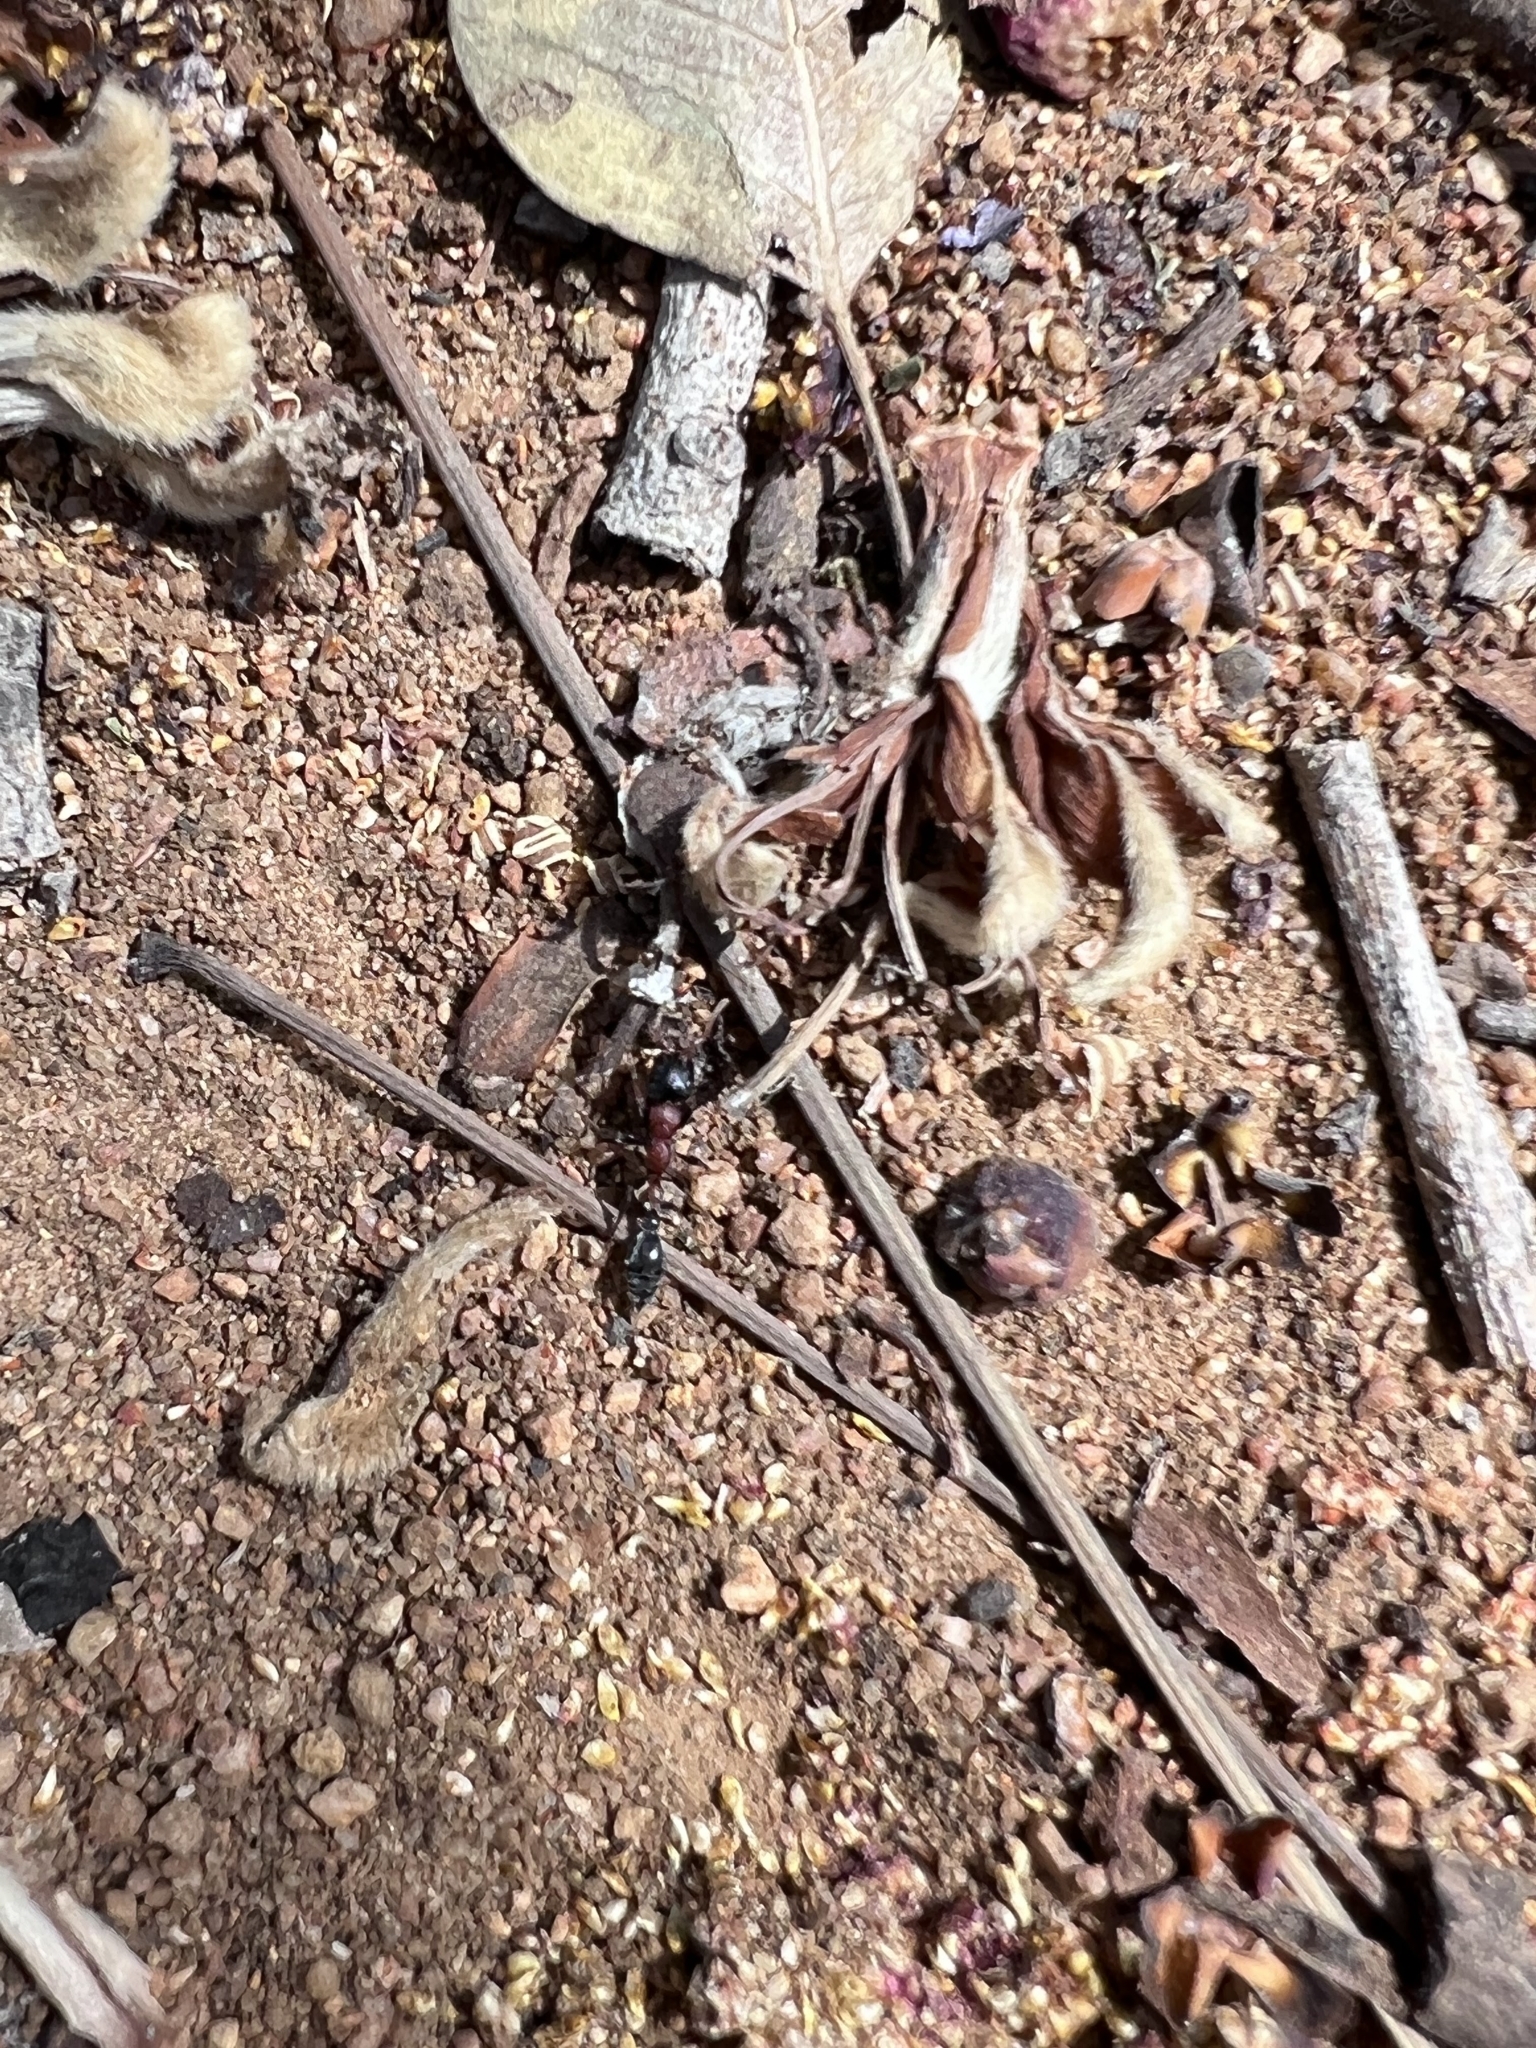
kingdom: Animalia
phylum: Arthropoda
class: Insecta
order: Hymenoptera
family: Formicidae
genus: Tetraponera
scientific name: Tetraponera rufonigra
